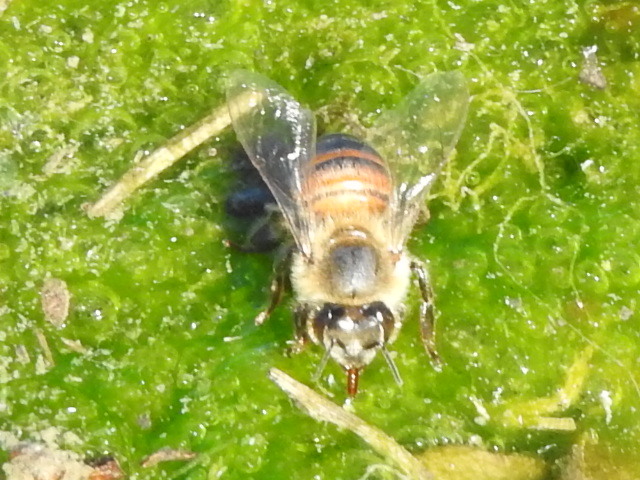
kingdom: Animalia
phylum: Arthropoda
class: Insecta
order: Hymenoptera
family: Apidae
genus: Apis
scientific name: Apis mellifera
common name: Honey bee
